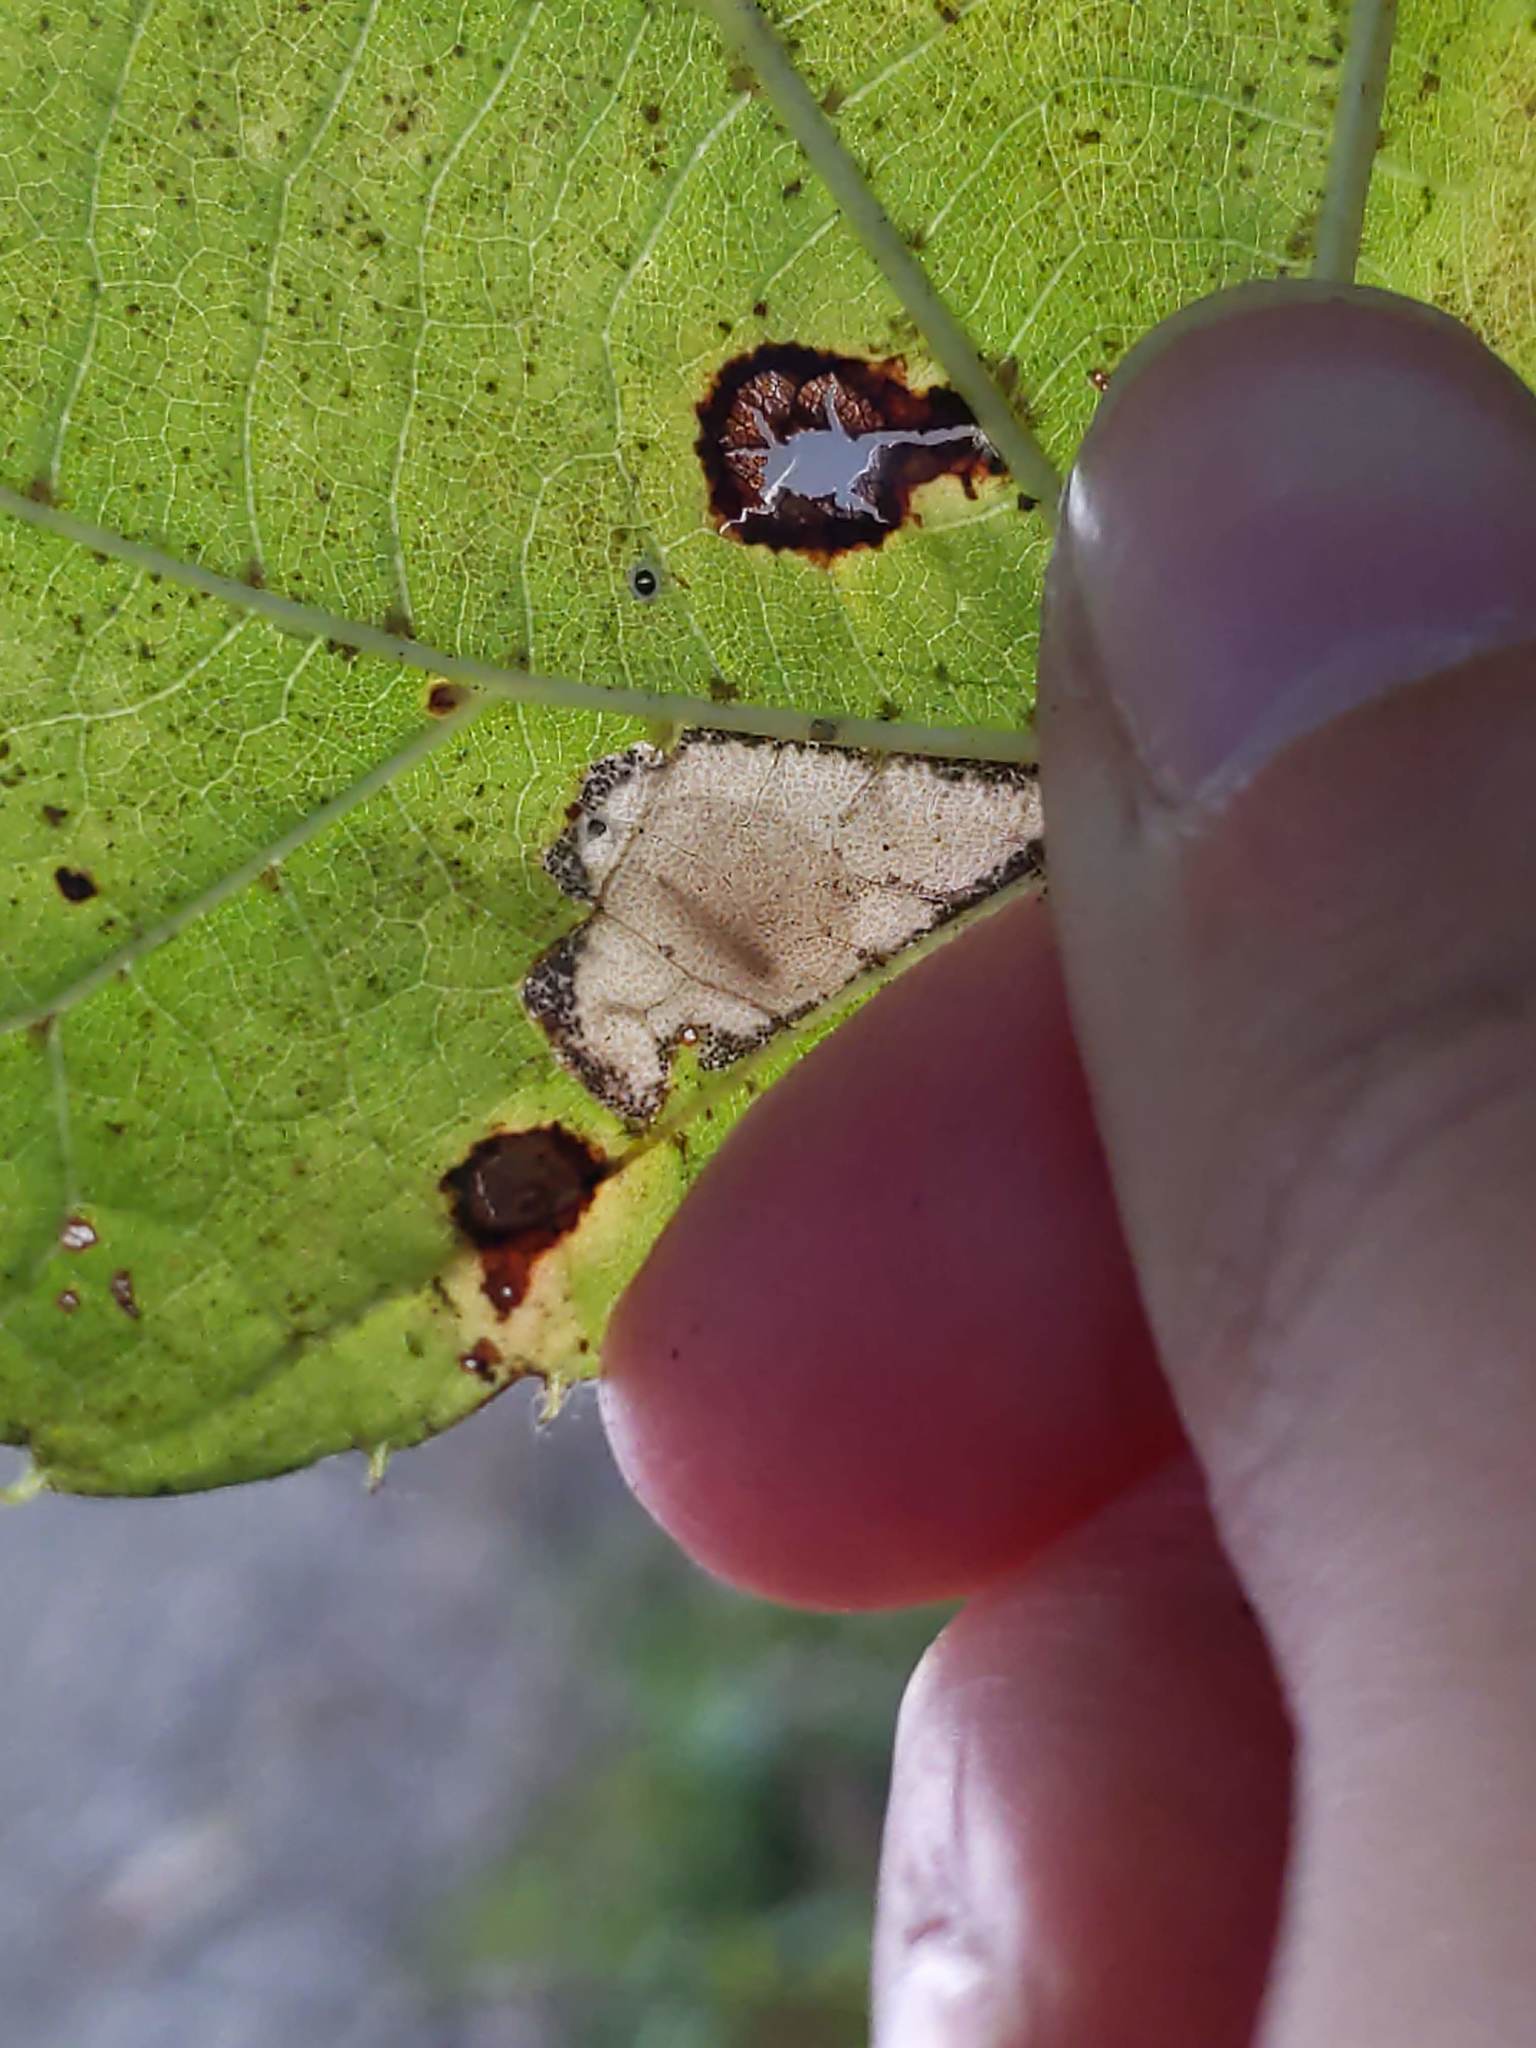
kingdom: Animalia
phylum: Arthropoda
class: Insecta
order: Lepidoptera
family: Gracillariidae
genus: Phyllonorycter
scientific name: Phyllonorycter lucetiella
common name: Basswood miner moth
